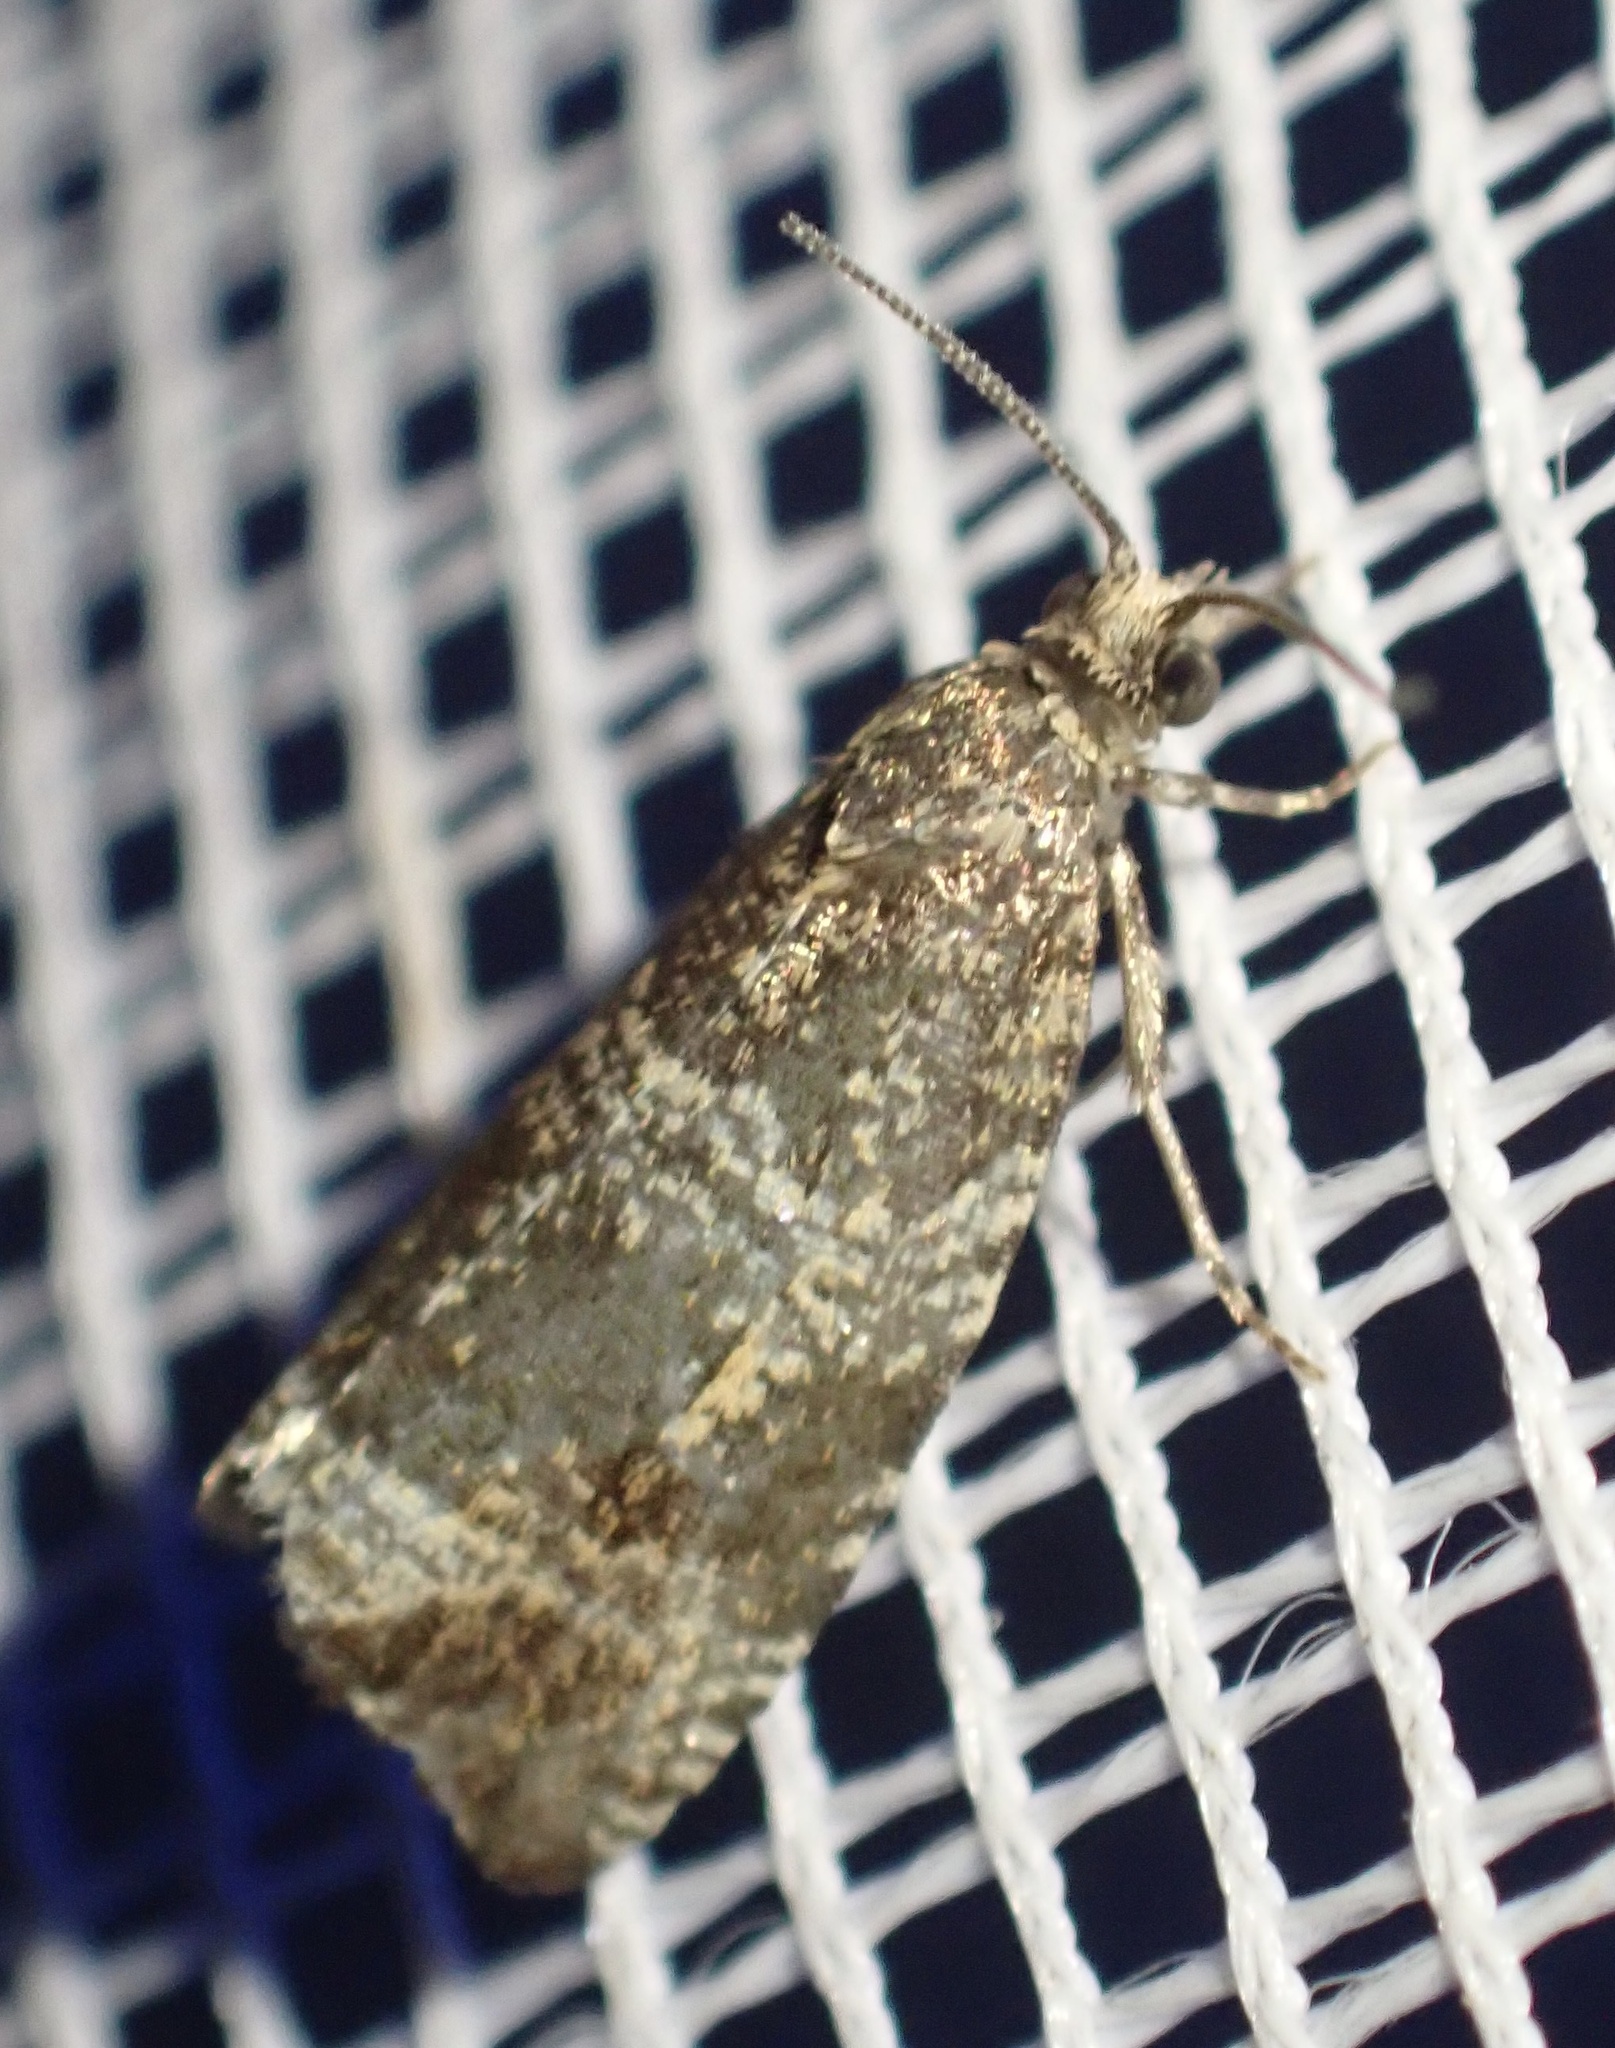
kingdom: Animalia
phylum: Arthropoda
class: Insecta
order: Lepidoptera
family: Tortricidae
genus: Syricoris
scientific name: Syricoris lacunana
